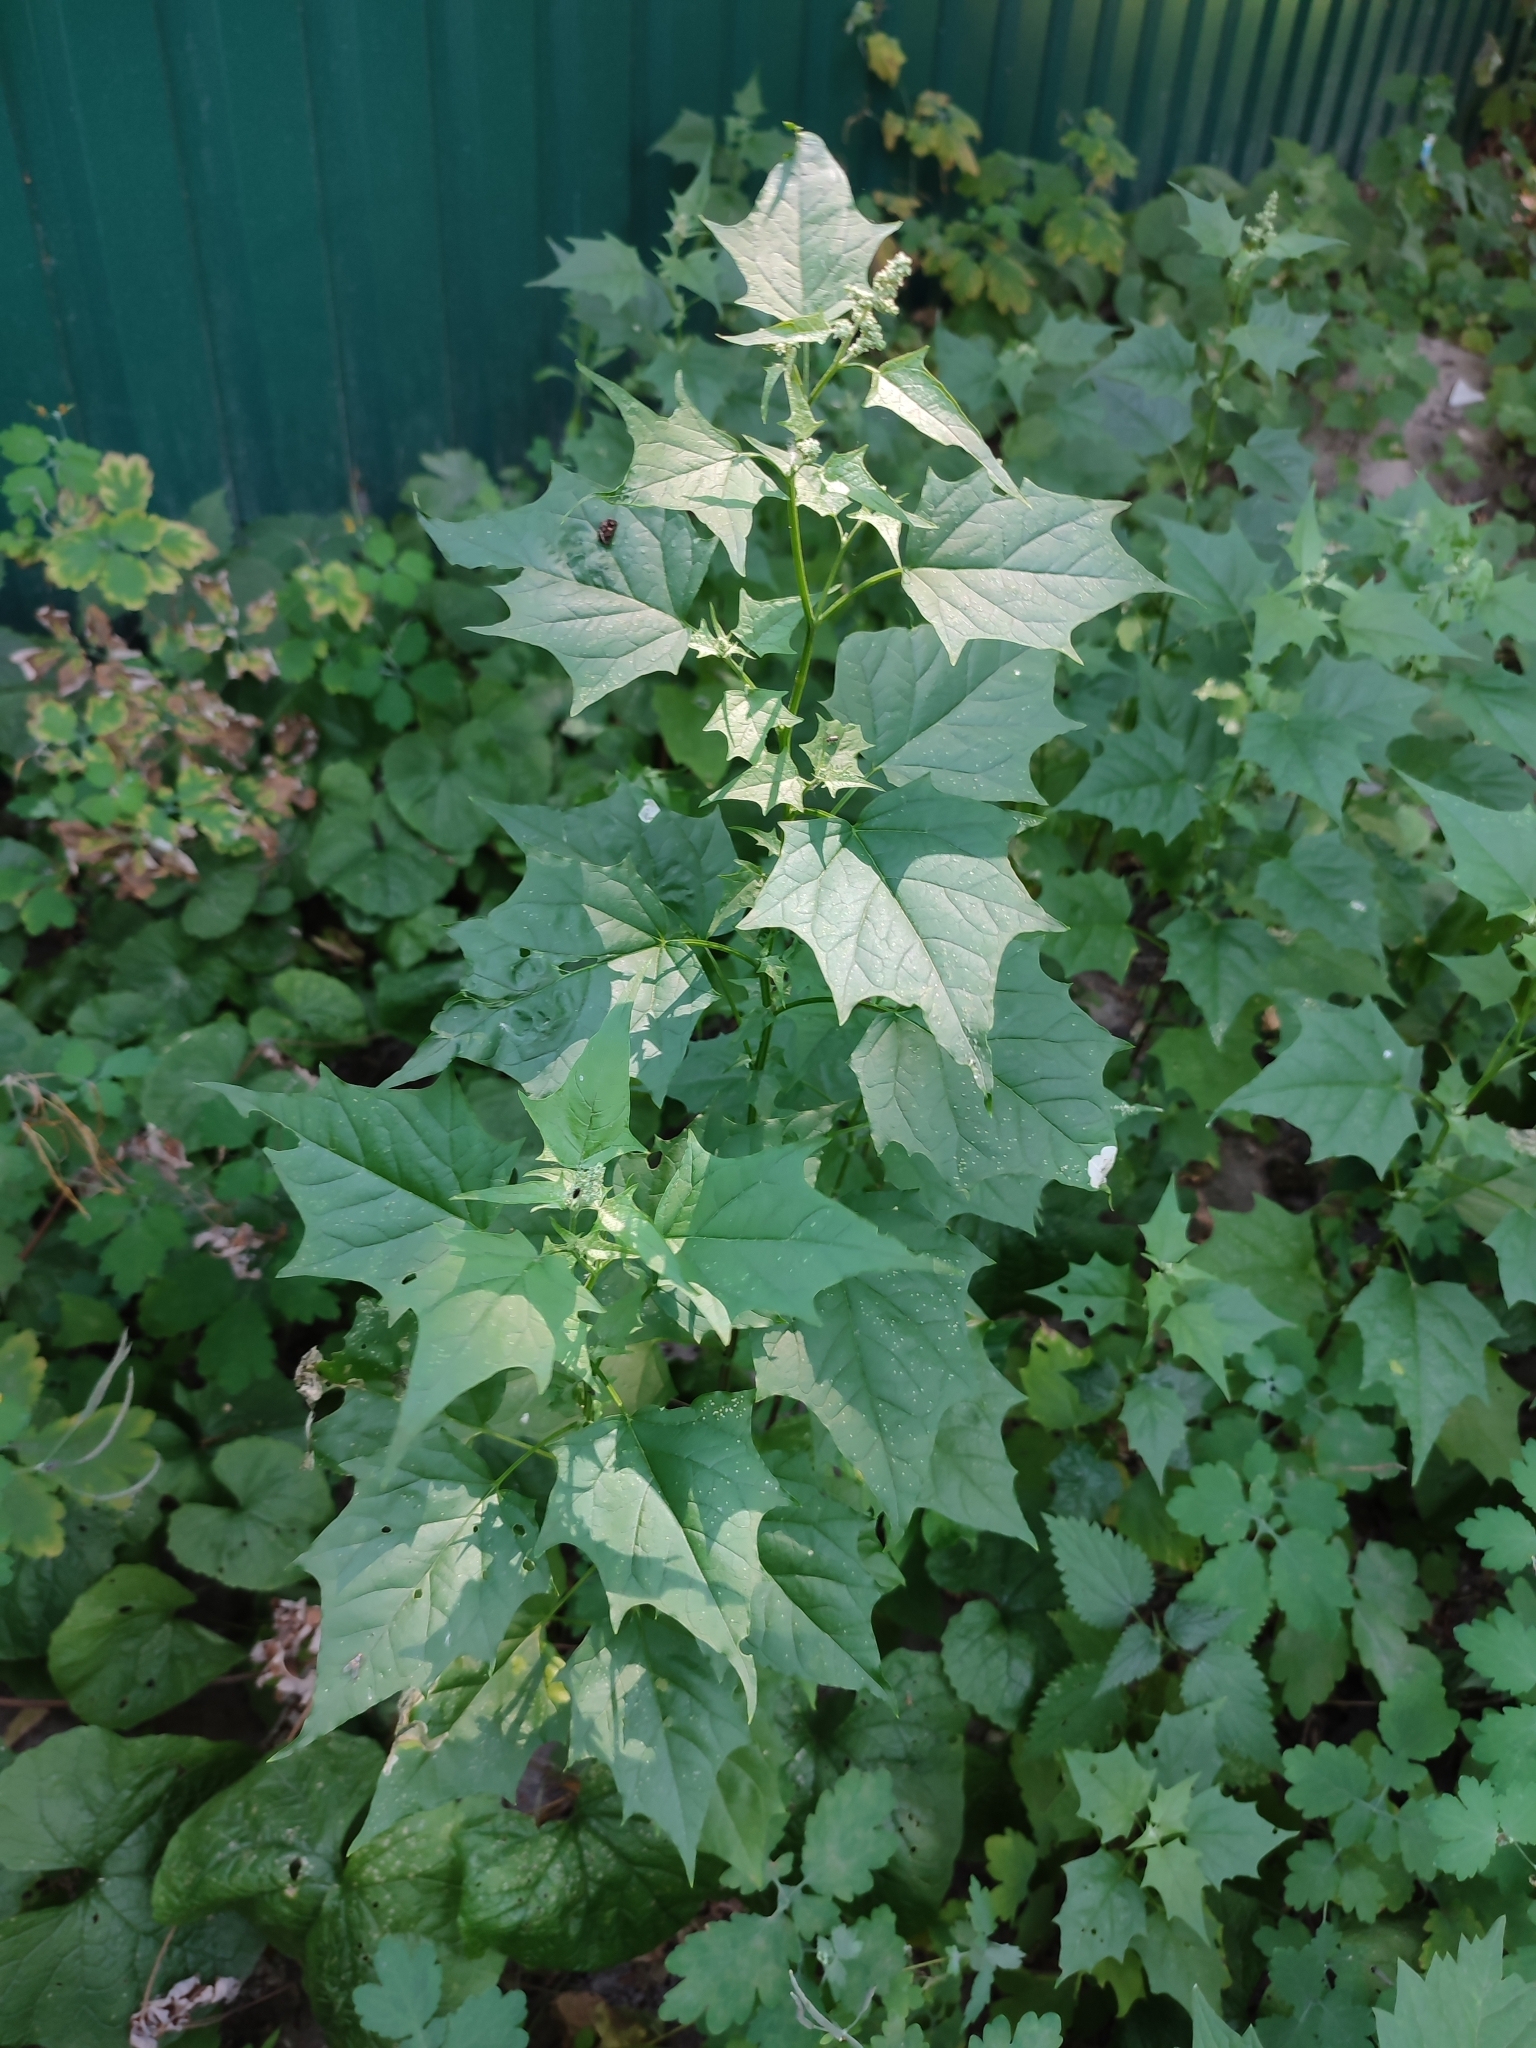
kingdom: Plantae
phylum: Tracheophyta
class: Magnoliopsida
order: Caryophyllales
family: Amaranthaceae
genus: Chenopodiastrum
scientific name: Chenopodiastrum hybridum
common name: Mapleleaf goosefoot
